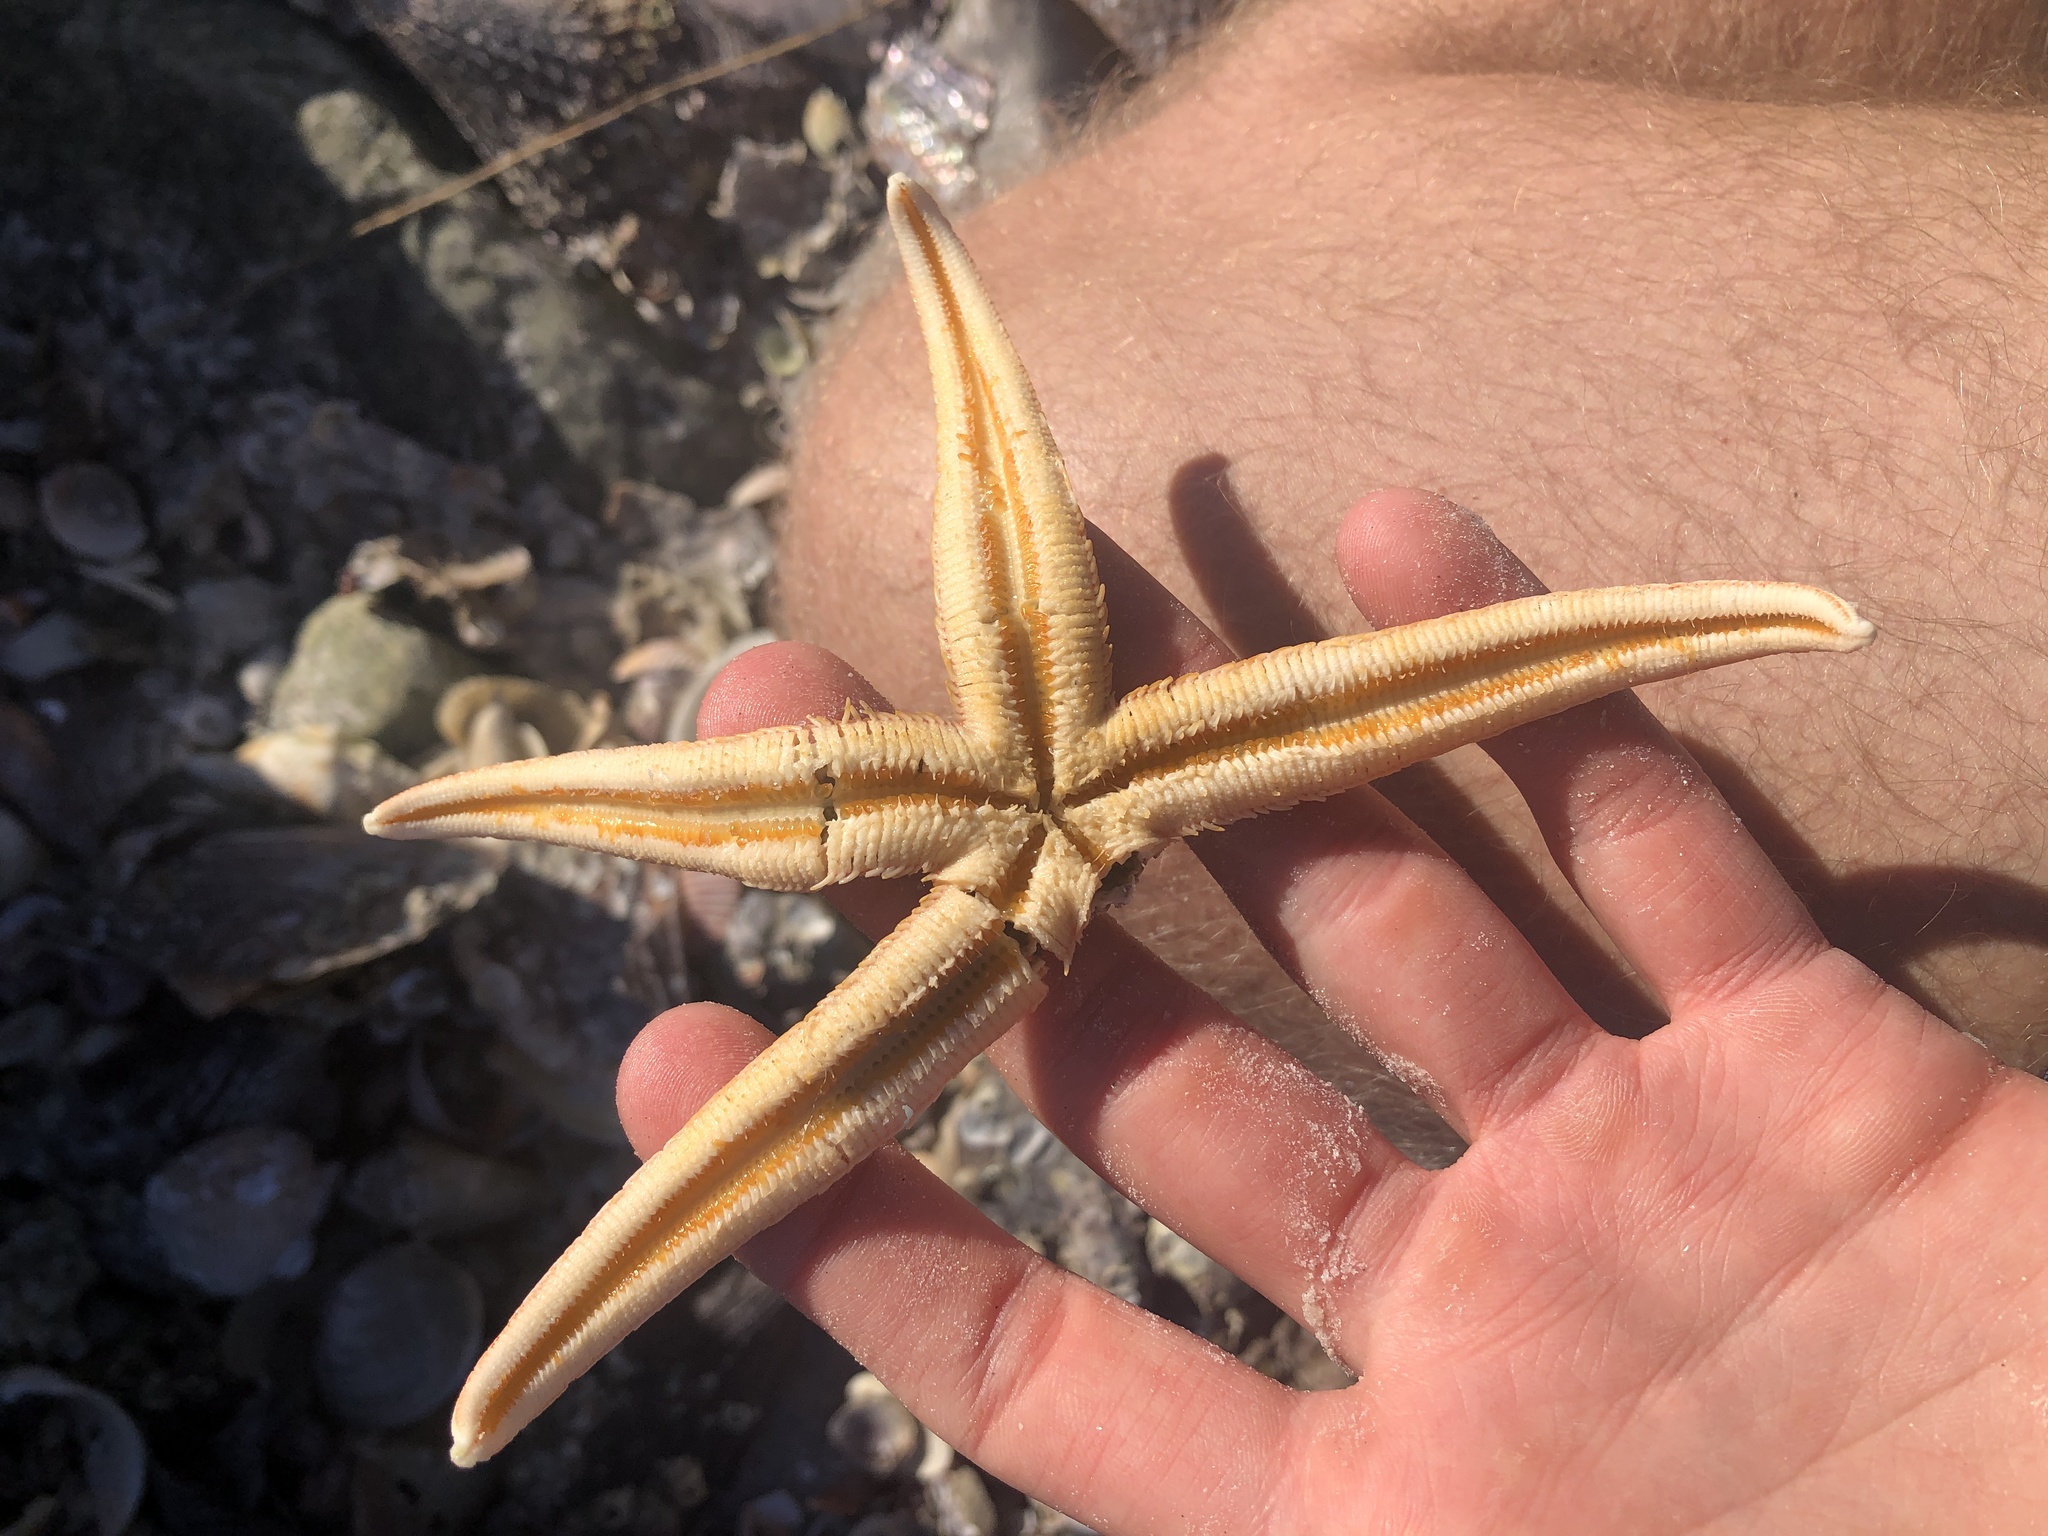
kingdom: Animalia
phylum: Echinodermata
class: Asteroidea
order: Paxillosida
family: Luidiidae
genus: Luidia
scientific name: Luidia clathrata
